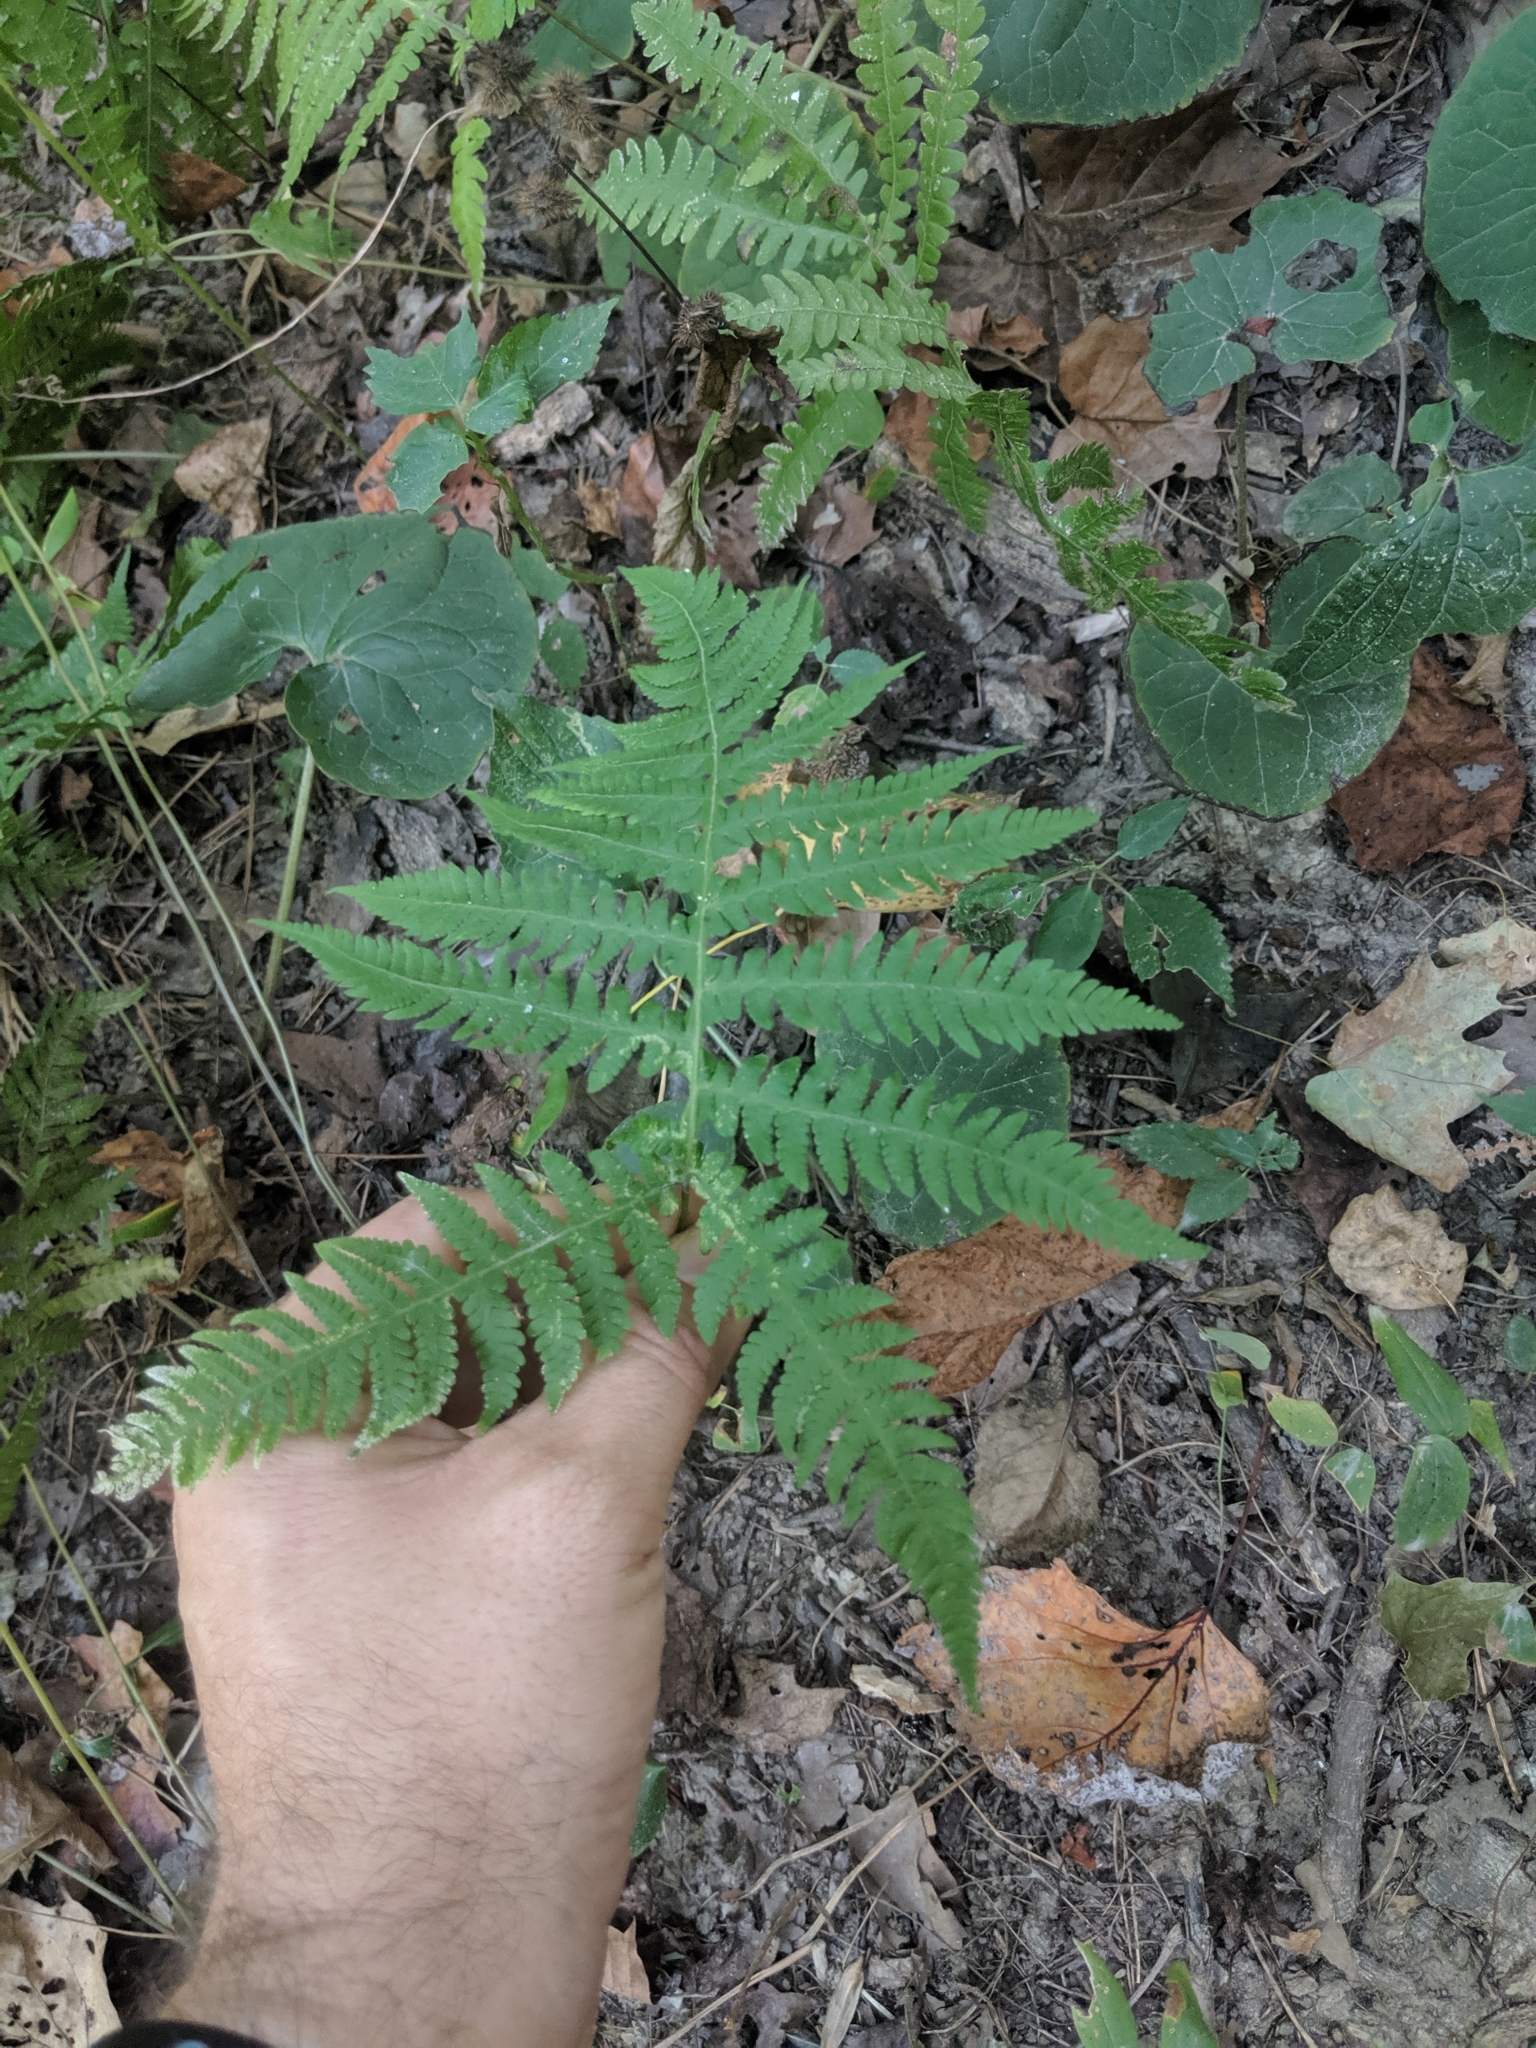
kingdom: Plantae
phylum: Tracheophyta
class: Polypodiopsida
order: Polypodiales
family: Thelypteridaceae
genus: Phegopteris
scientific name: Phegopteris hexagonoptera
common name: Broad beech fern
